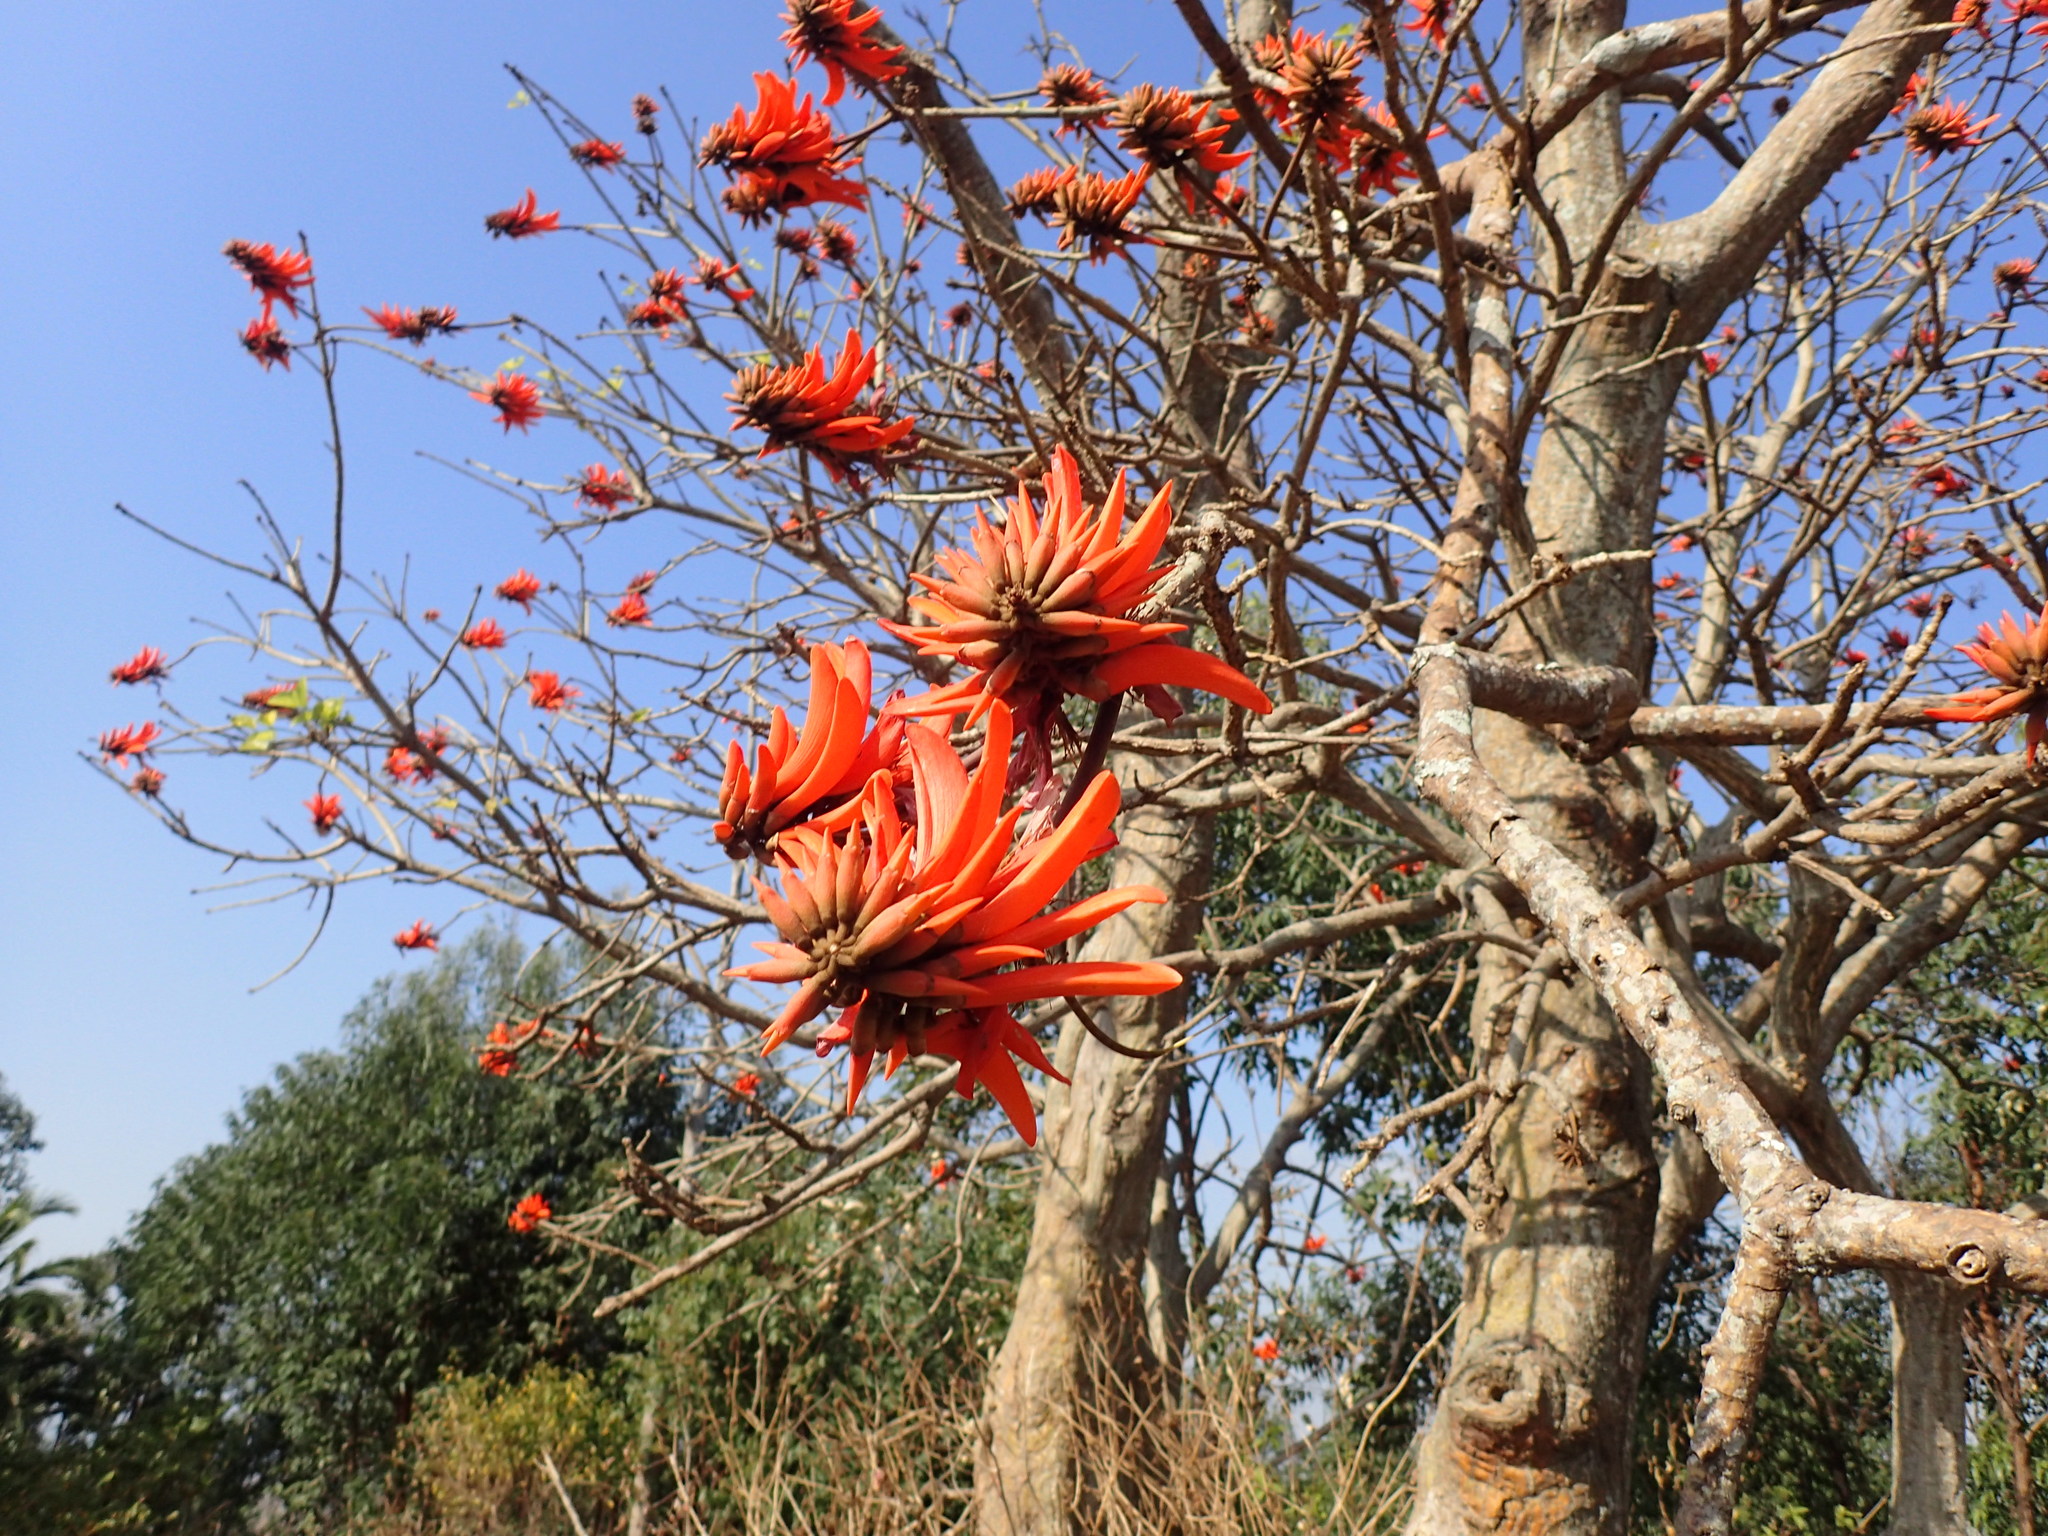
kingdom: Plantae
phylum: Tracheophyta
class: Magnoliopsida
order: Fabales
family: Fabaceae
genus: Erythrina
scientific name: Erythrina lysistemon
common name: Common coral tree
